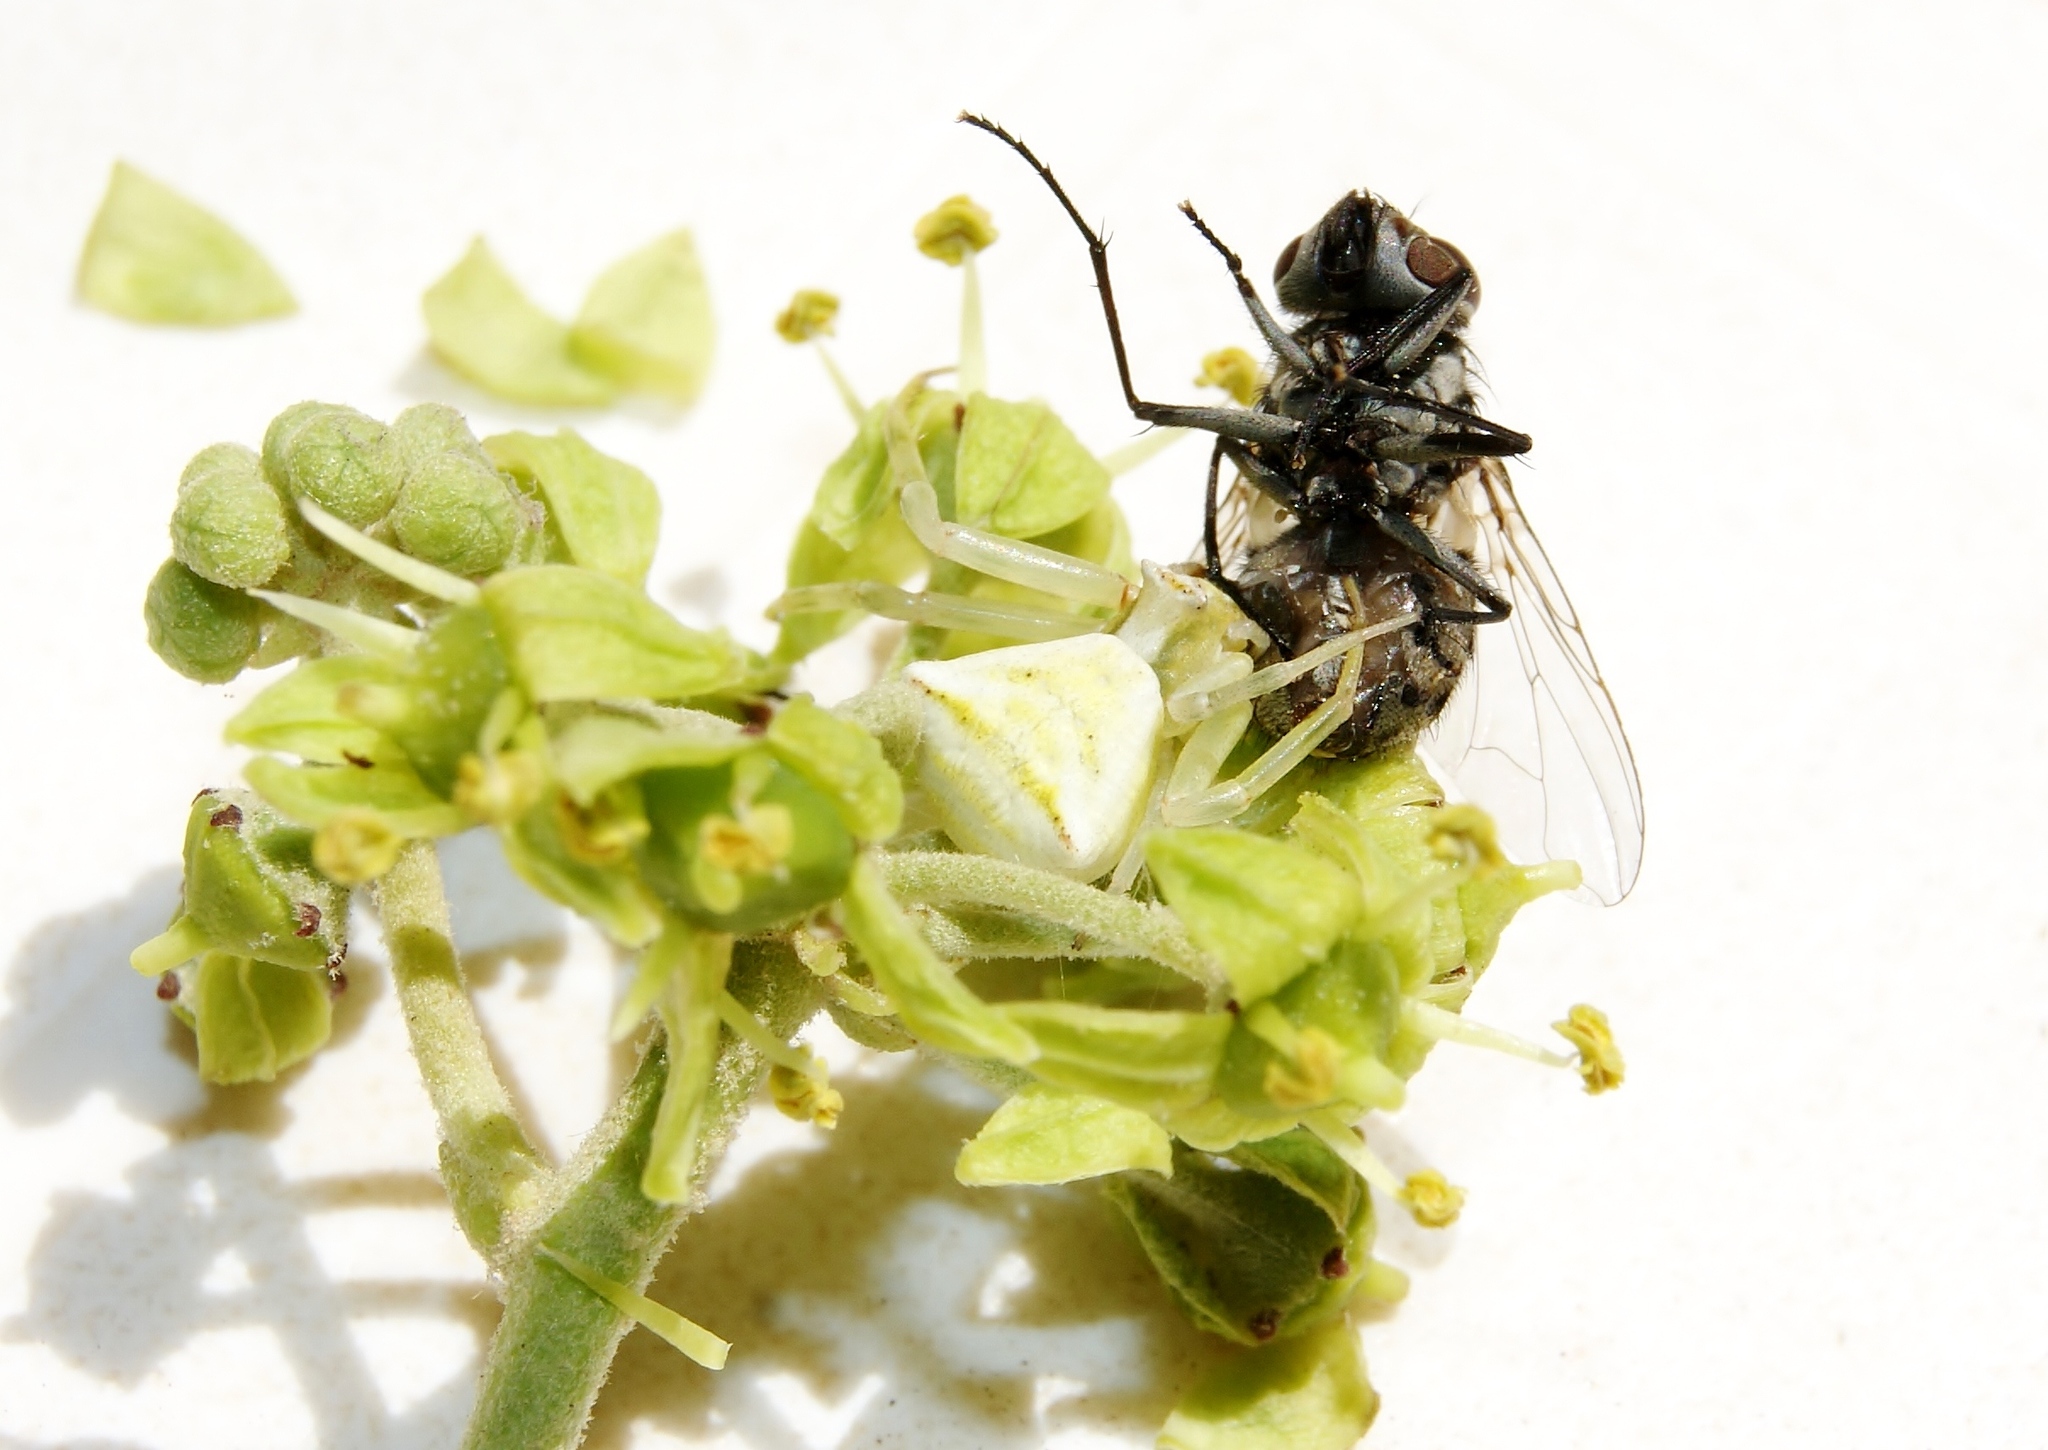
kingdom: Animalia
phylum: Arthropoda
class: Arachnida
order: Araneae
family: Thomisidae
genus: Thomisus
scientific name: Thomisus onustus
